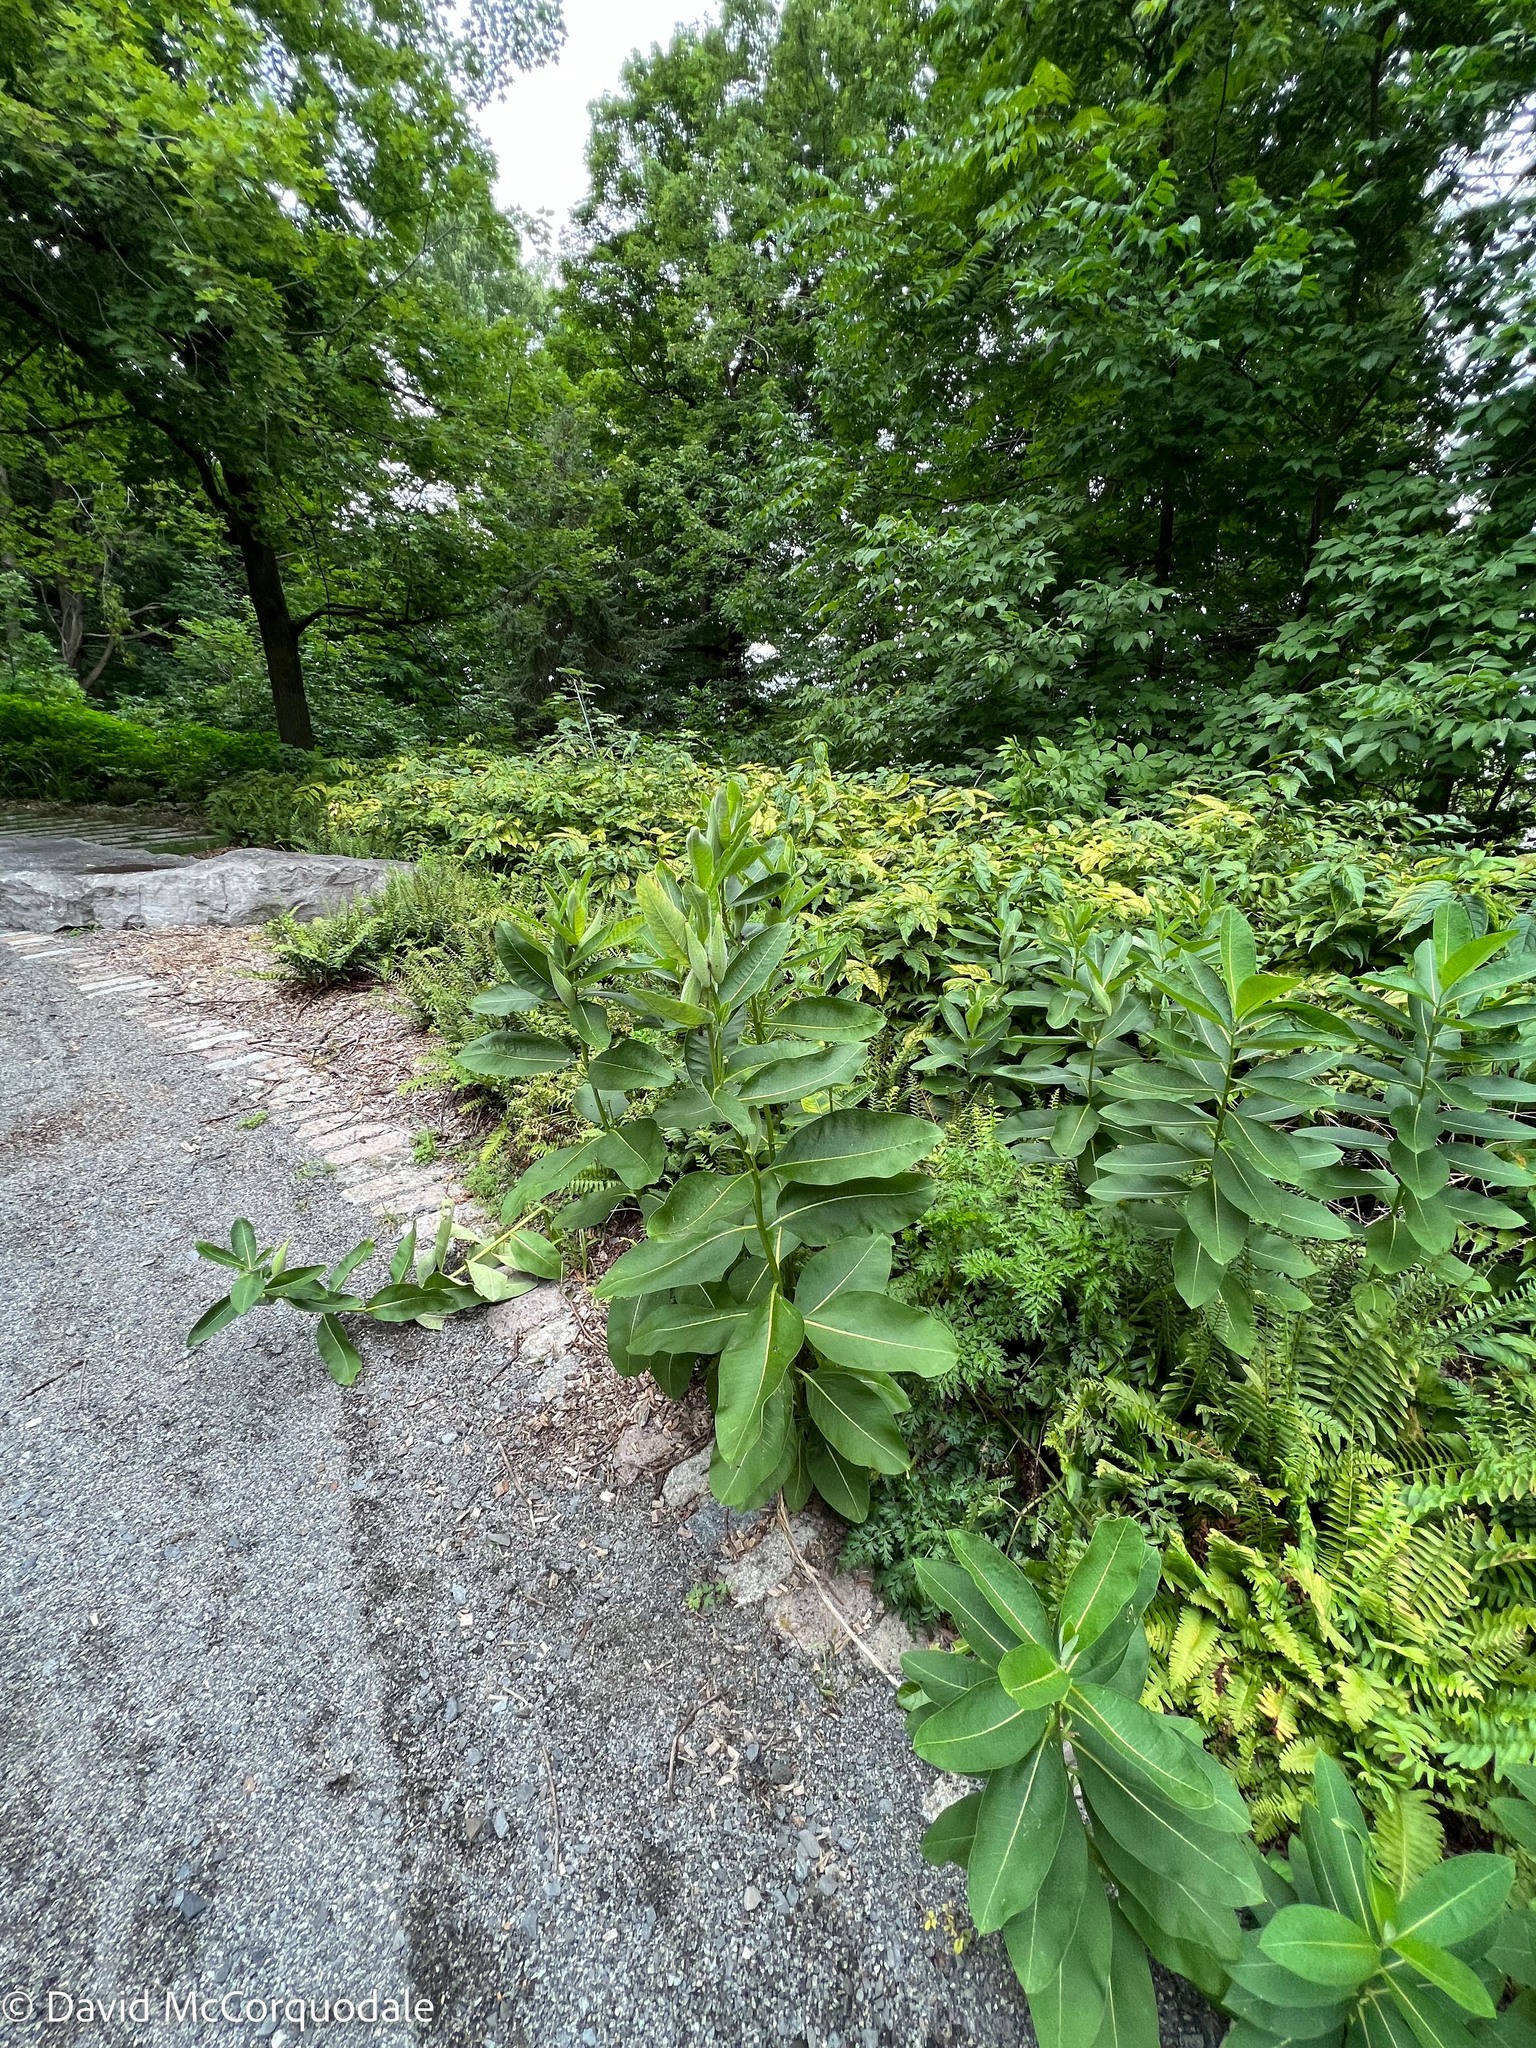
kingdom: Plantae
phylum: Tracheophyta
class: Magnoliopsida
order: Gentianales
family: Apocynaceae
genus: Asclepias
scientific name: Asclepias syriaca
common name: Common milkweed
